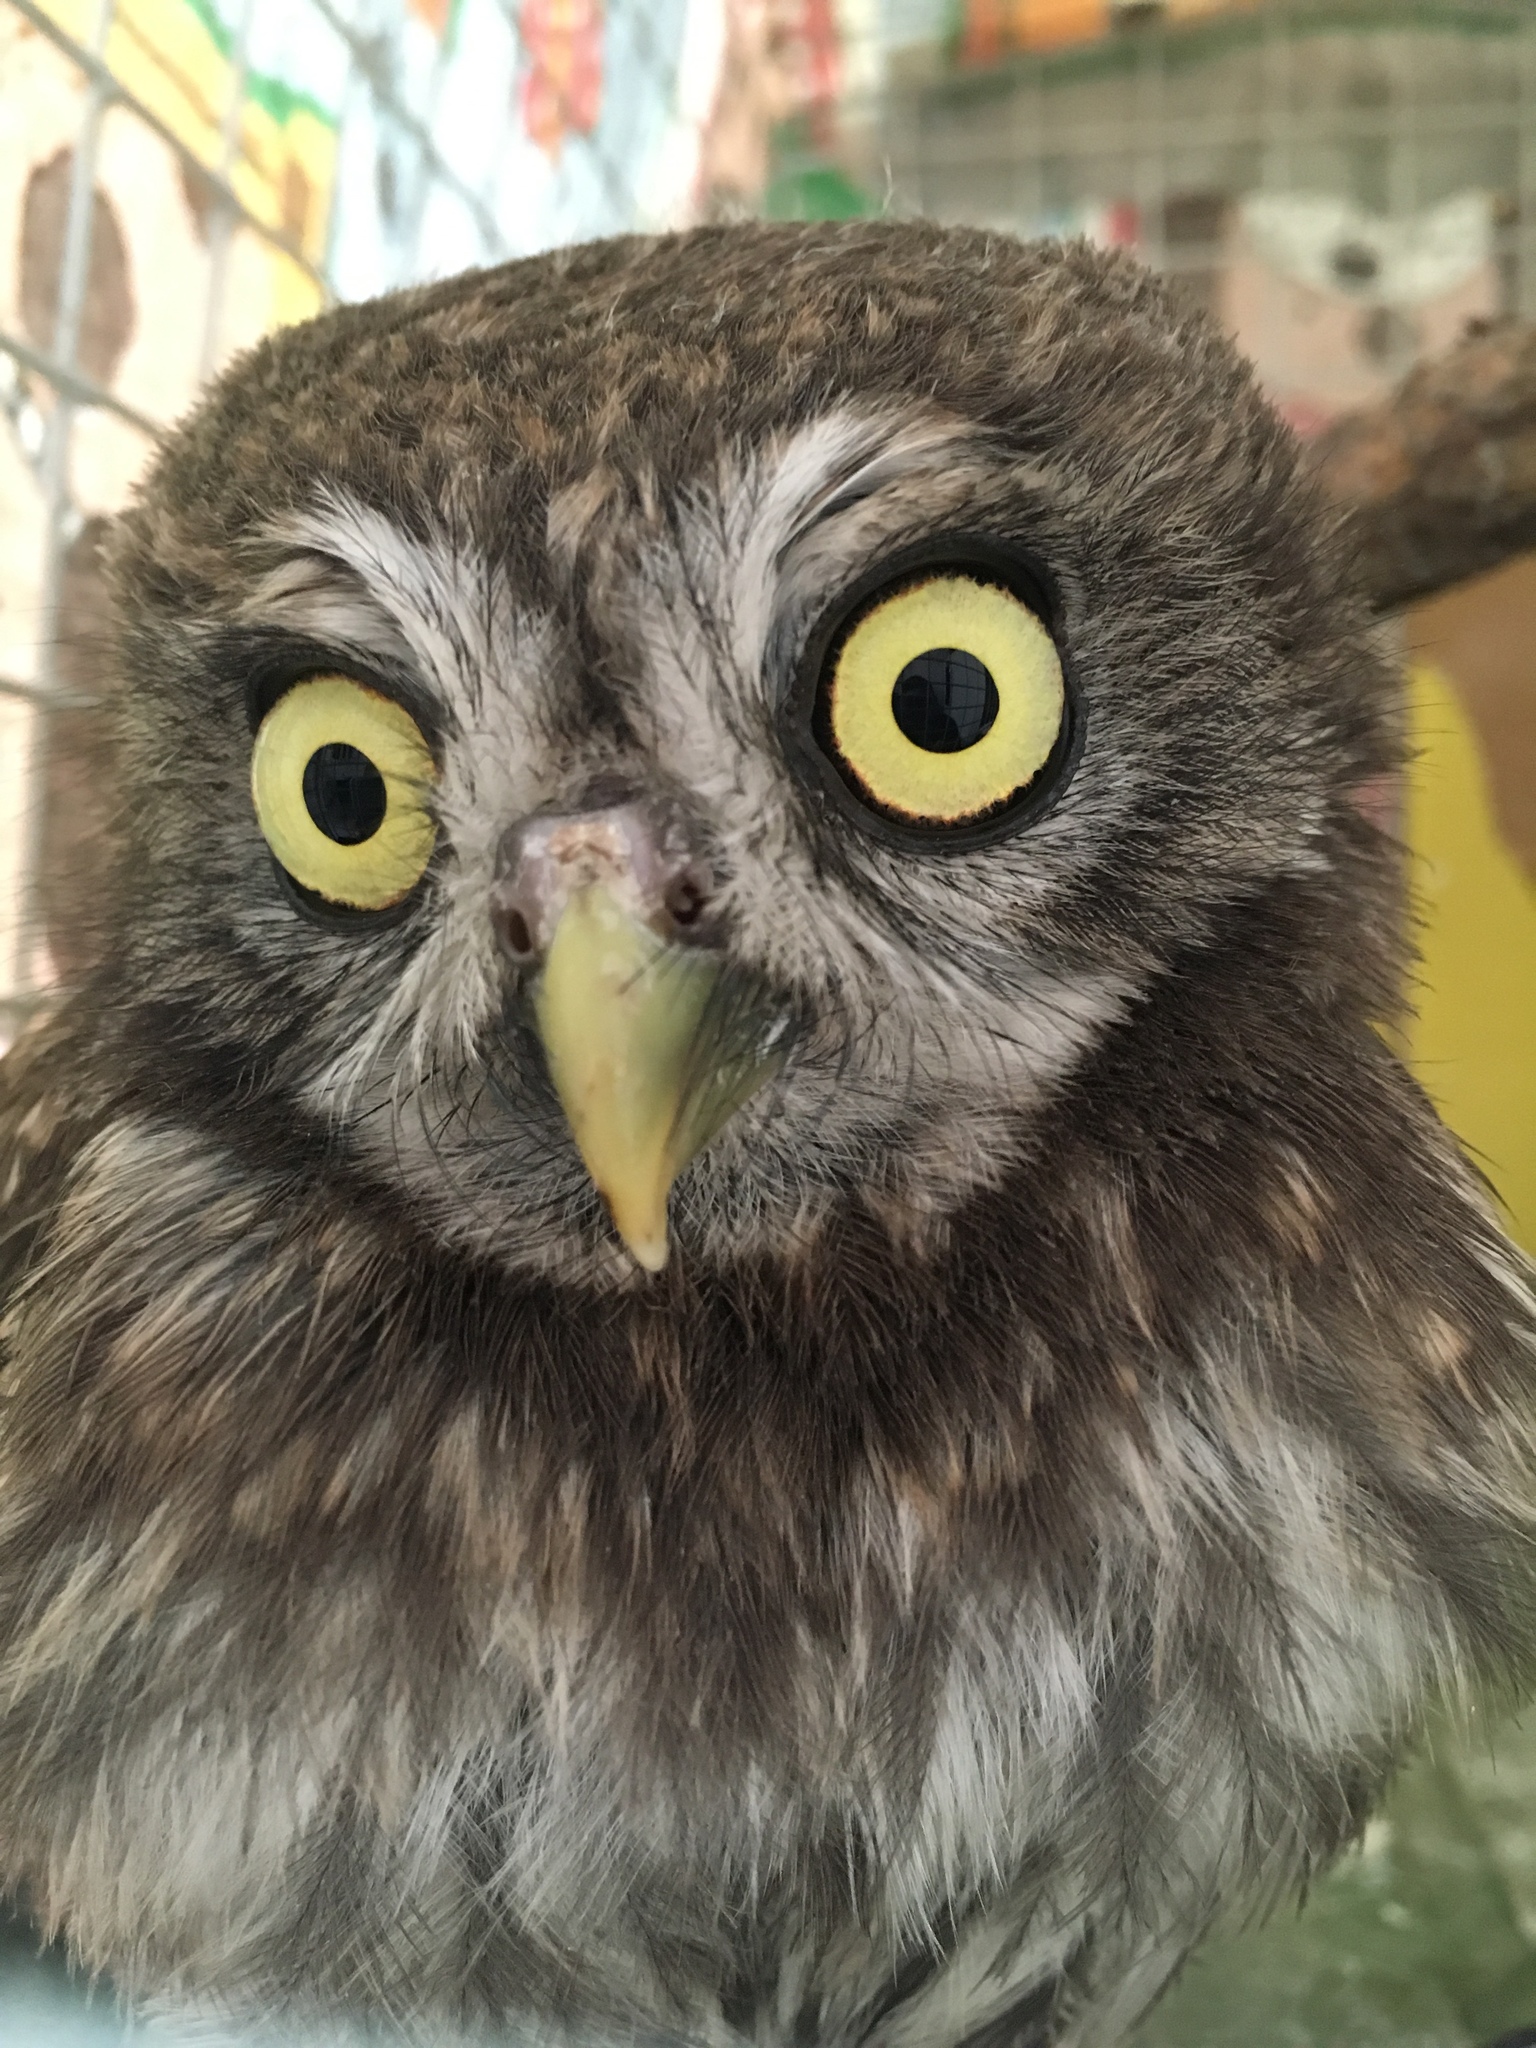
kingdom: Animalia
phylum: Chordata
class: Aves
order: Strigiformes
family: Strigidae
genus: Athene
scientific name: Athene noctua
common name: Little owl
